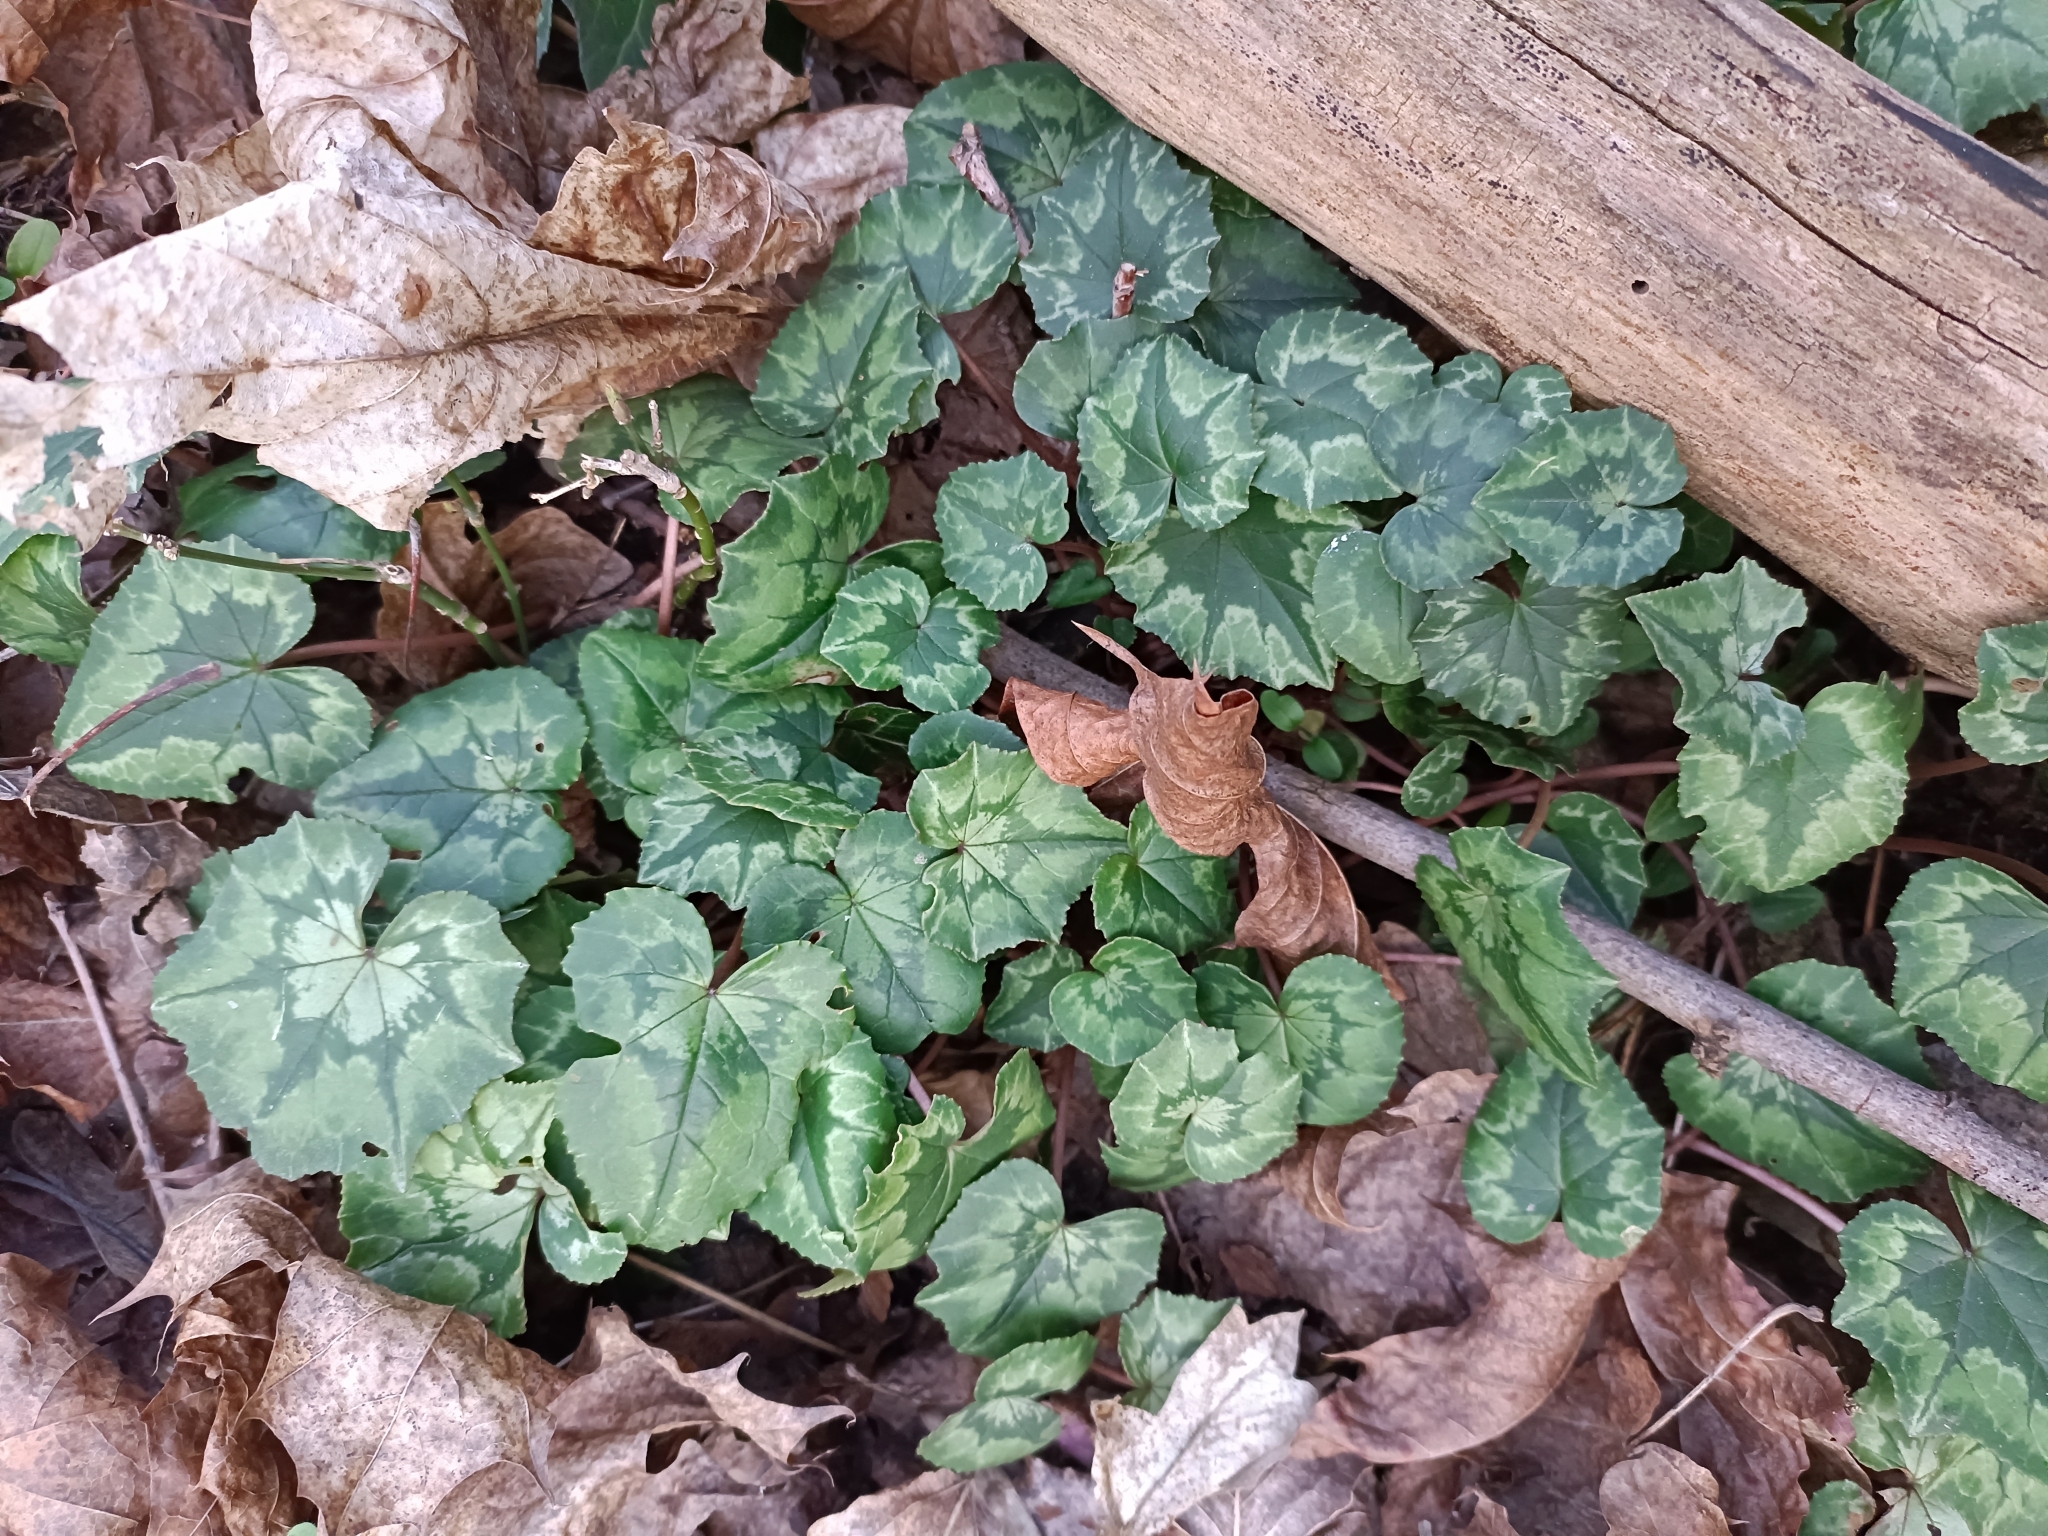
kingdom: Plantae
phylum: Tracheophyta
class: Magnoliopsida
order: Ericales
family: Primulaceae
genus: Cyclamen
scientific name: Cyclamen hederifolium
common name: Sowbread
